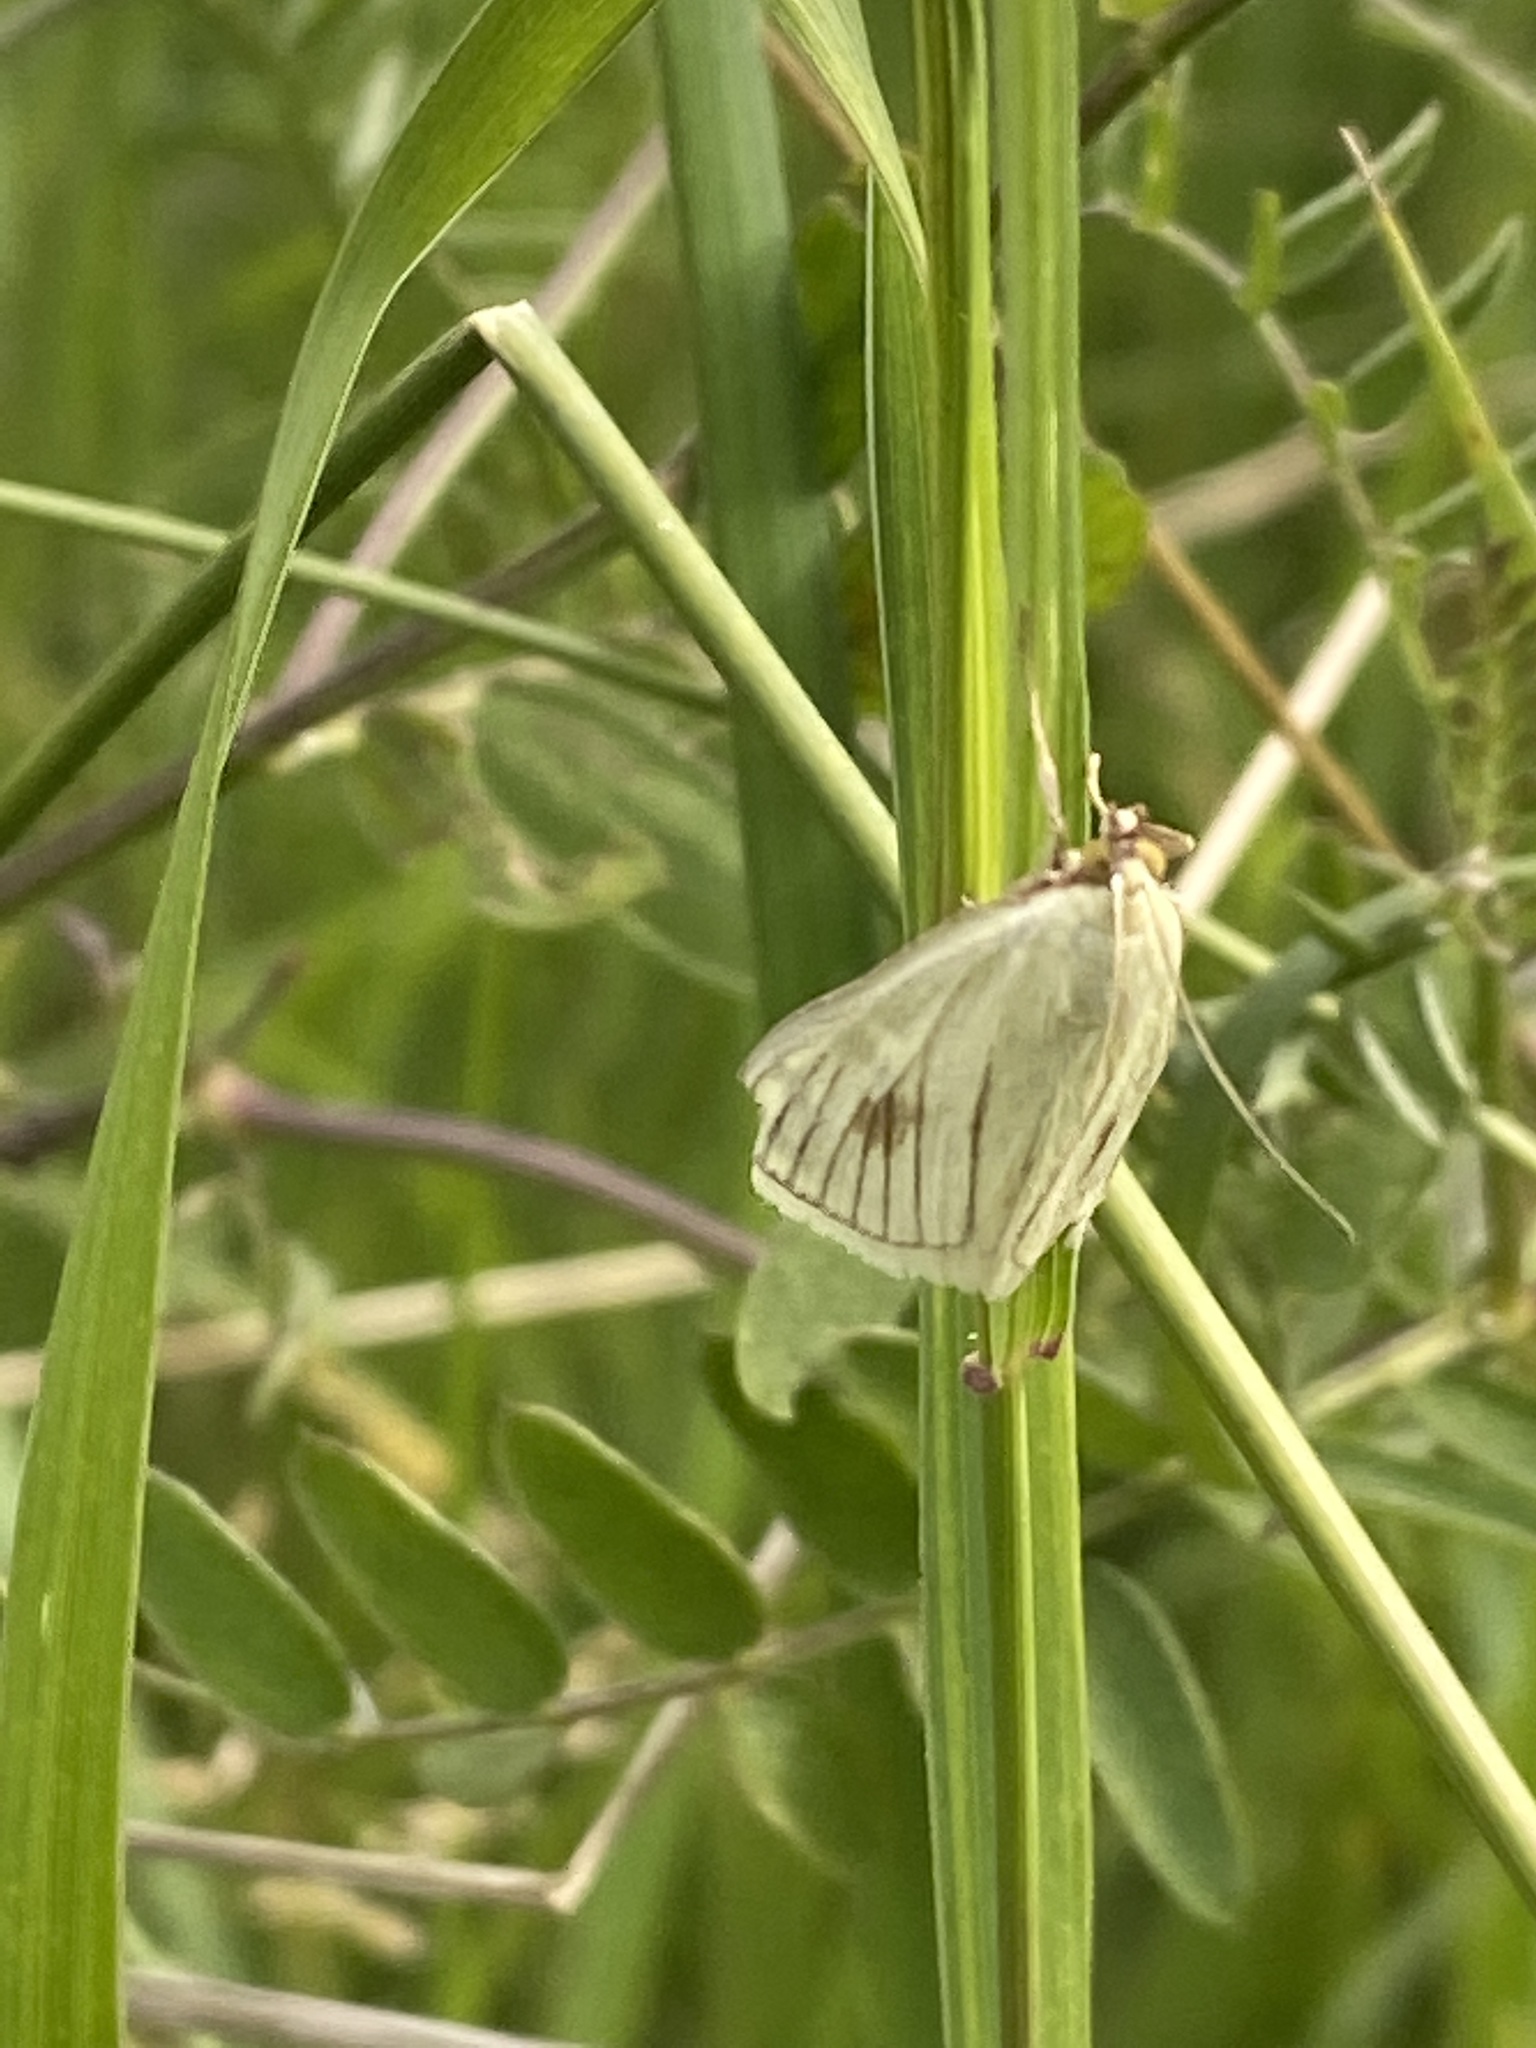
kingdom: Animalia
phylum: Arthropoda
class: Insecta
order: Lepidoptera
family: Crambidae
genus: Sitochroa
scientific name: Sitochroa palealis
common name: Greenish-yellow sitochroa moth
